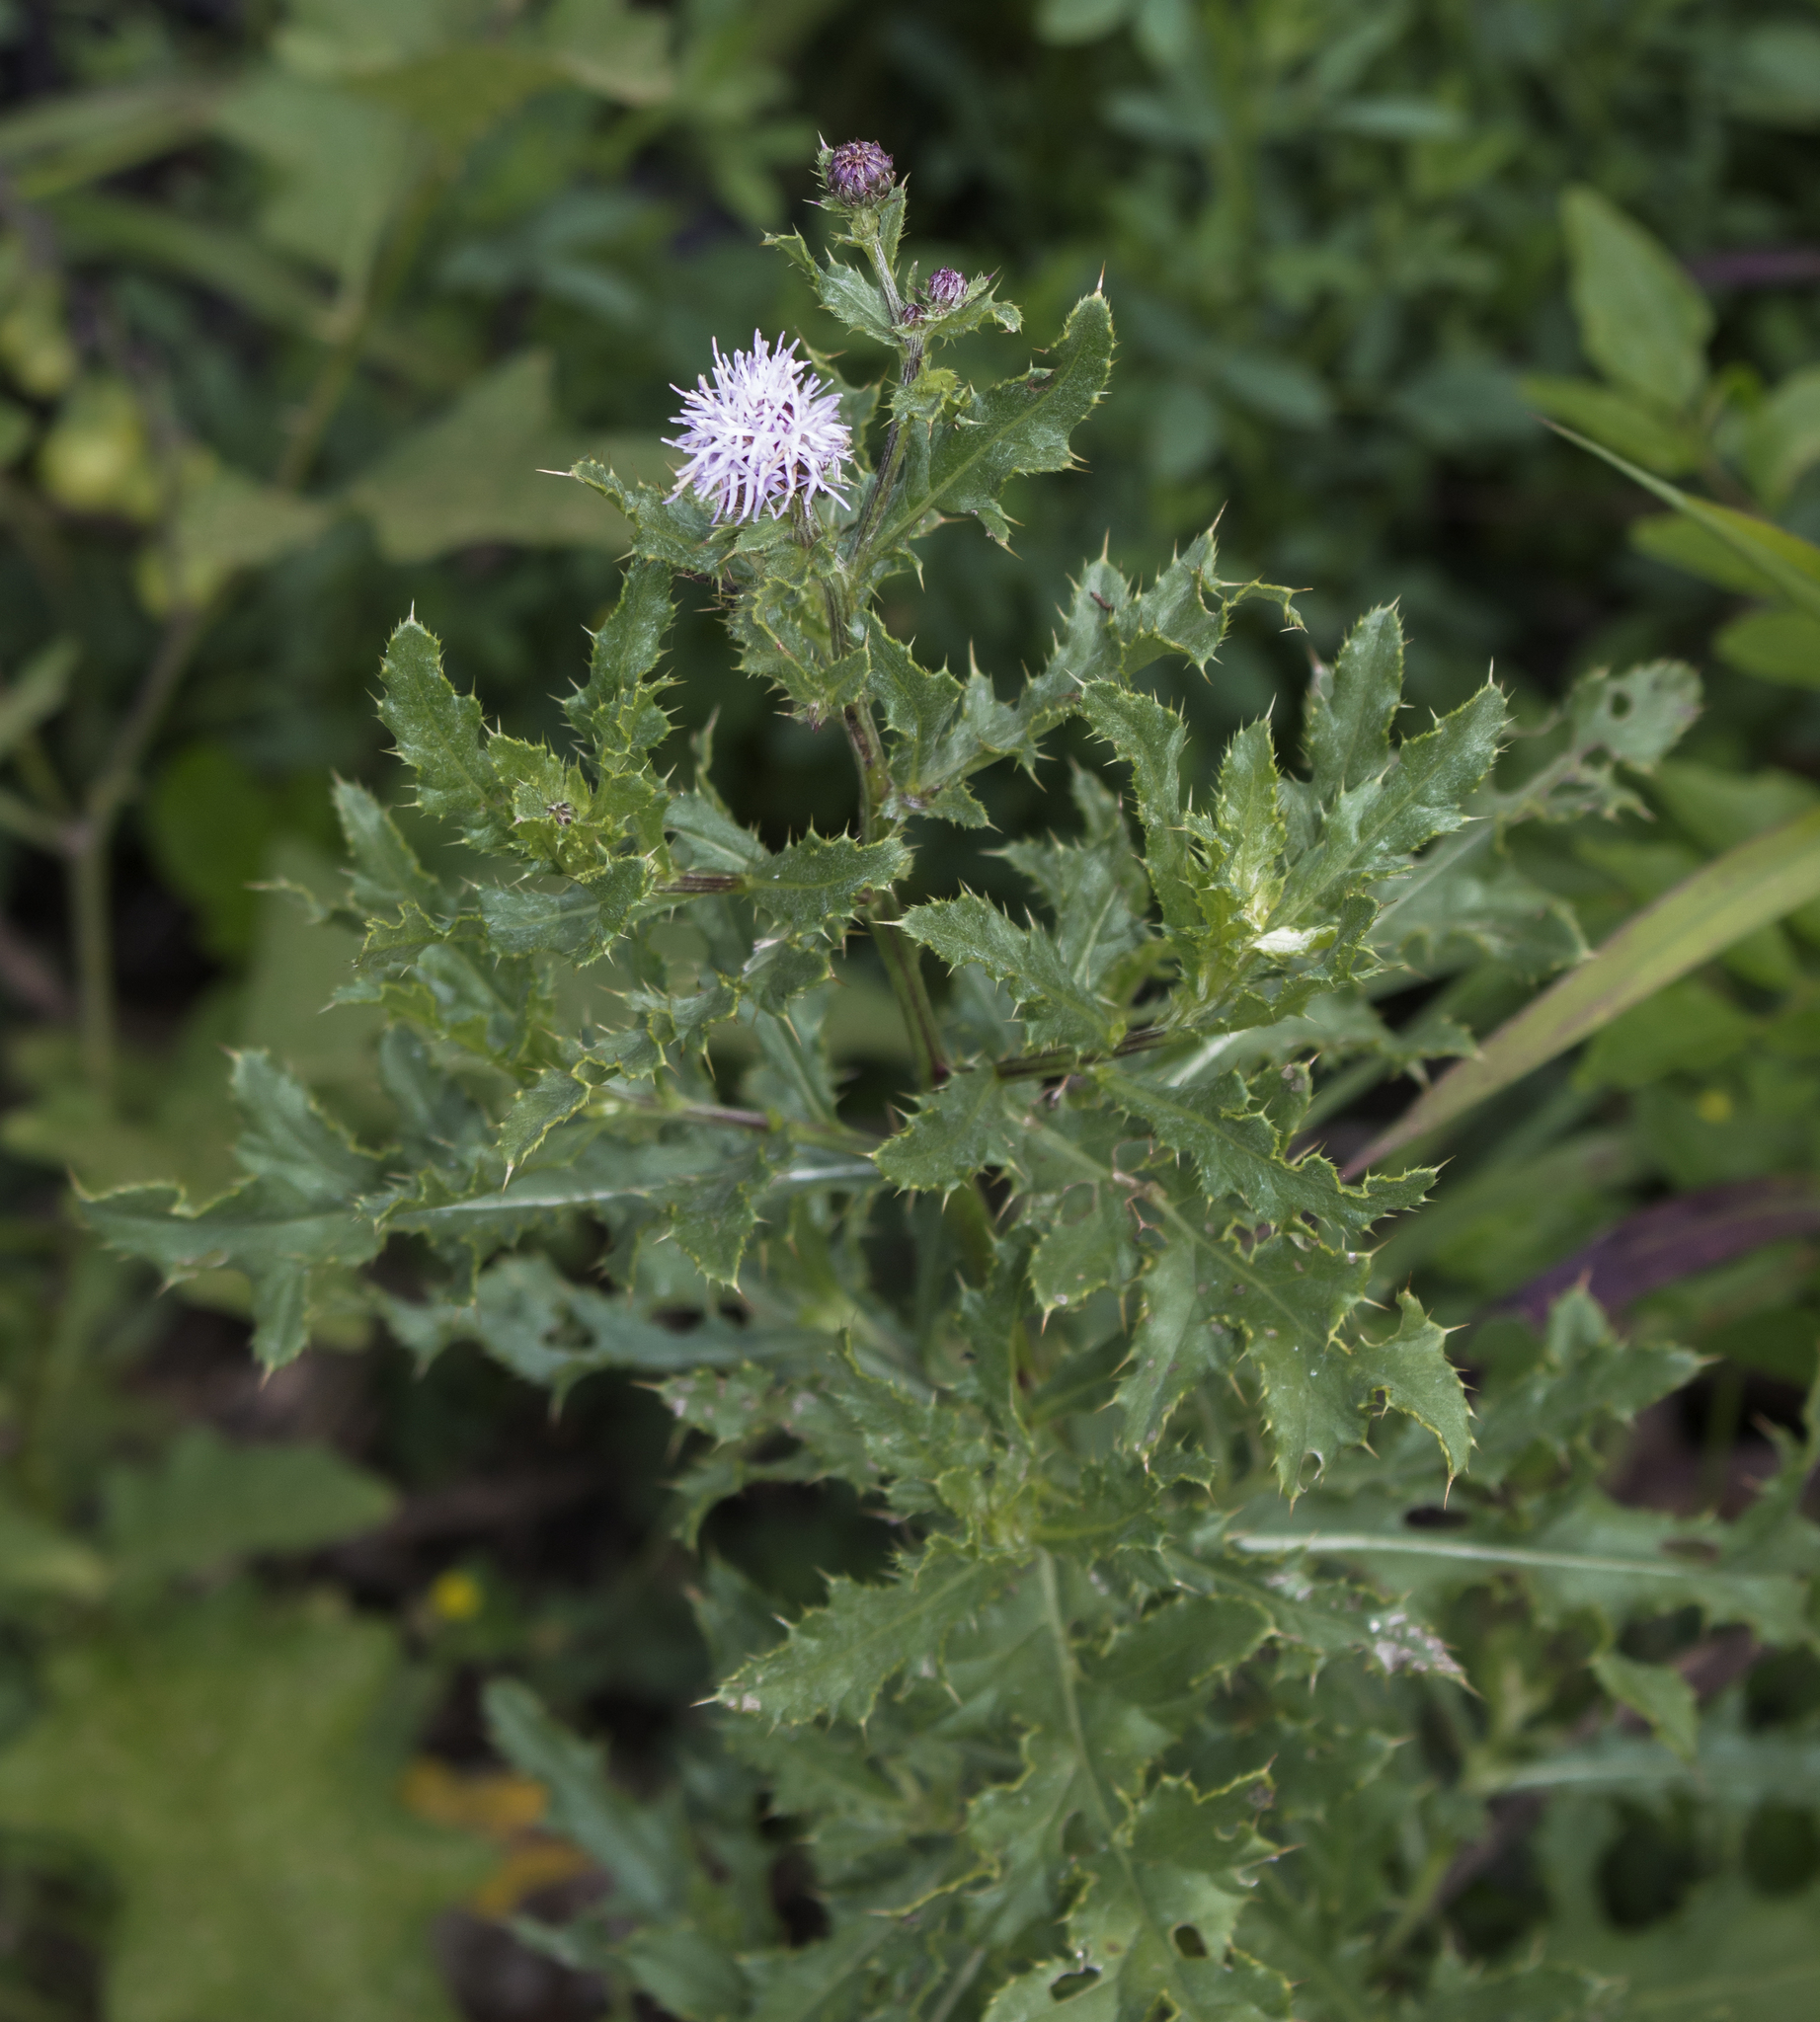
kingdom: Plantae
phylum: Tracheophyta
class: Magnoliopsida
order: Asterales
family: Asteraceae
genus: Cirsium
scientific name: Cirsium arvense
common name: Creeping thistle
